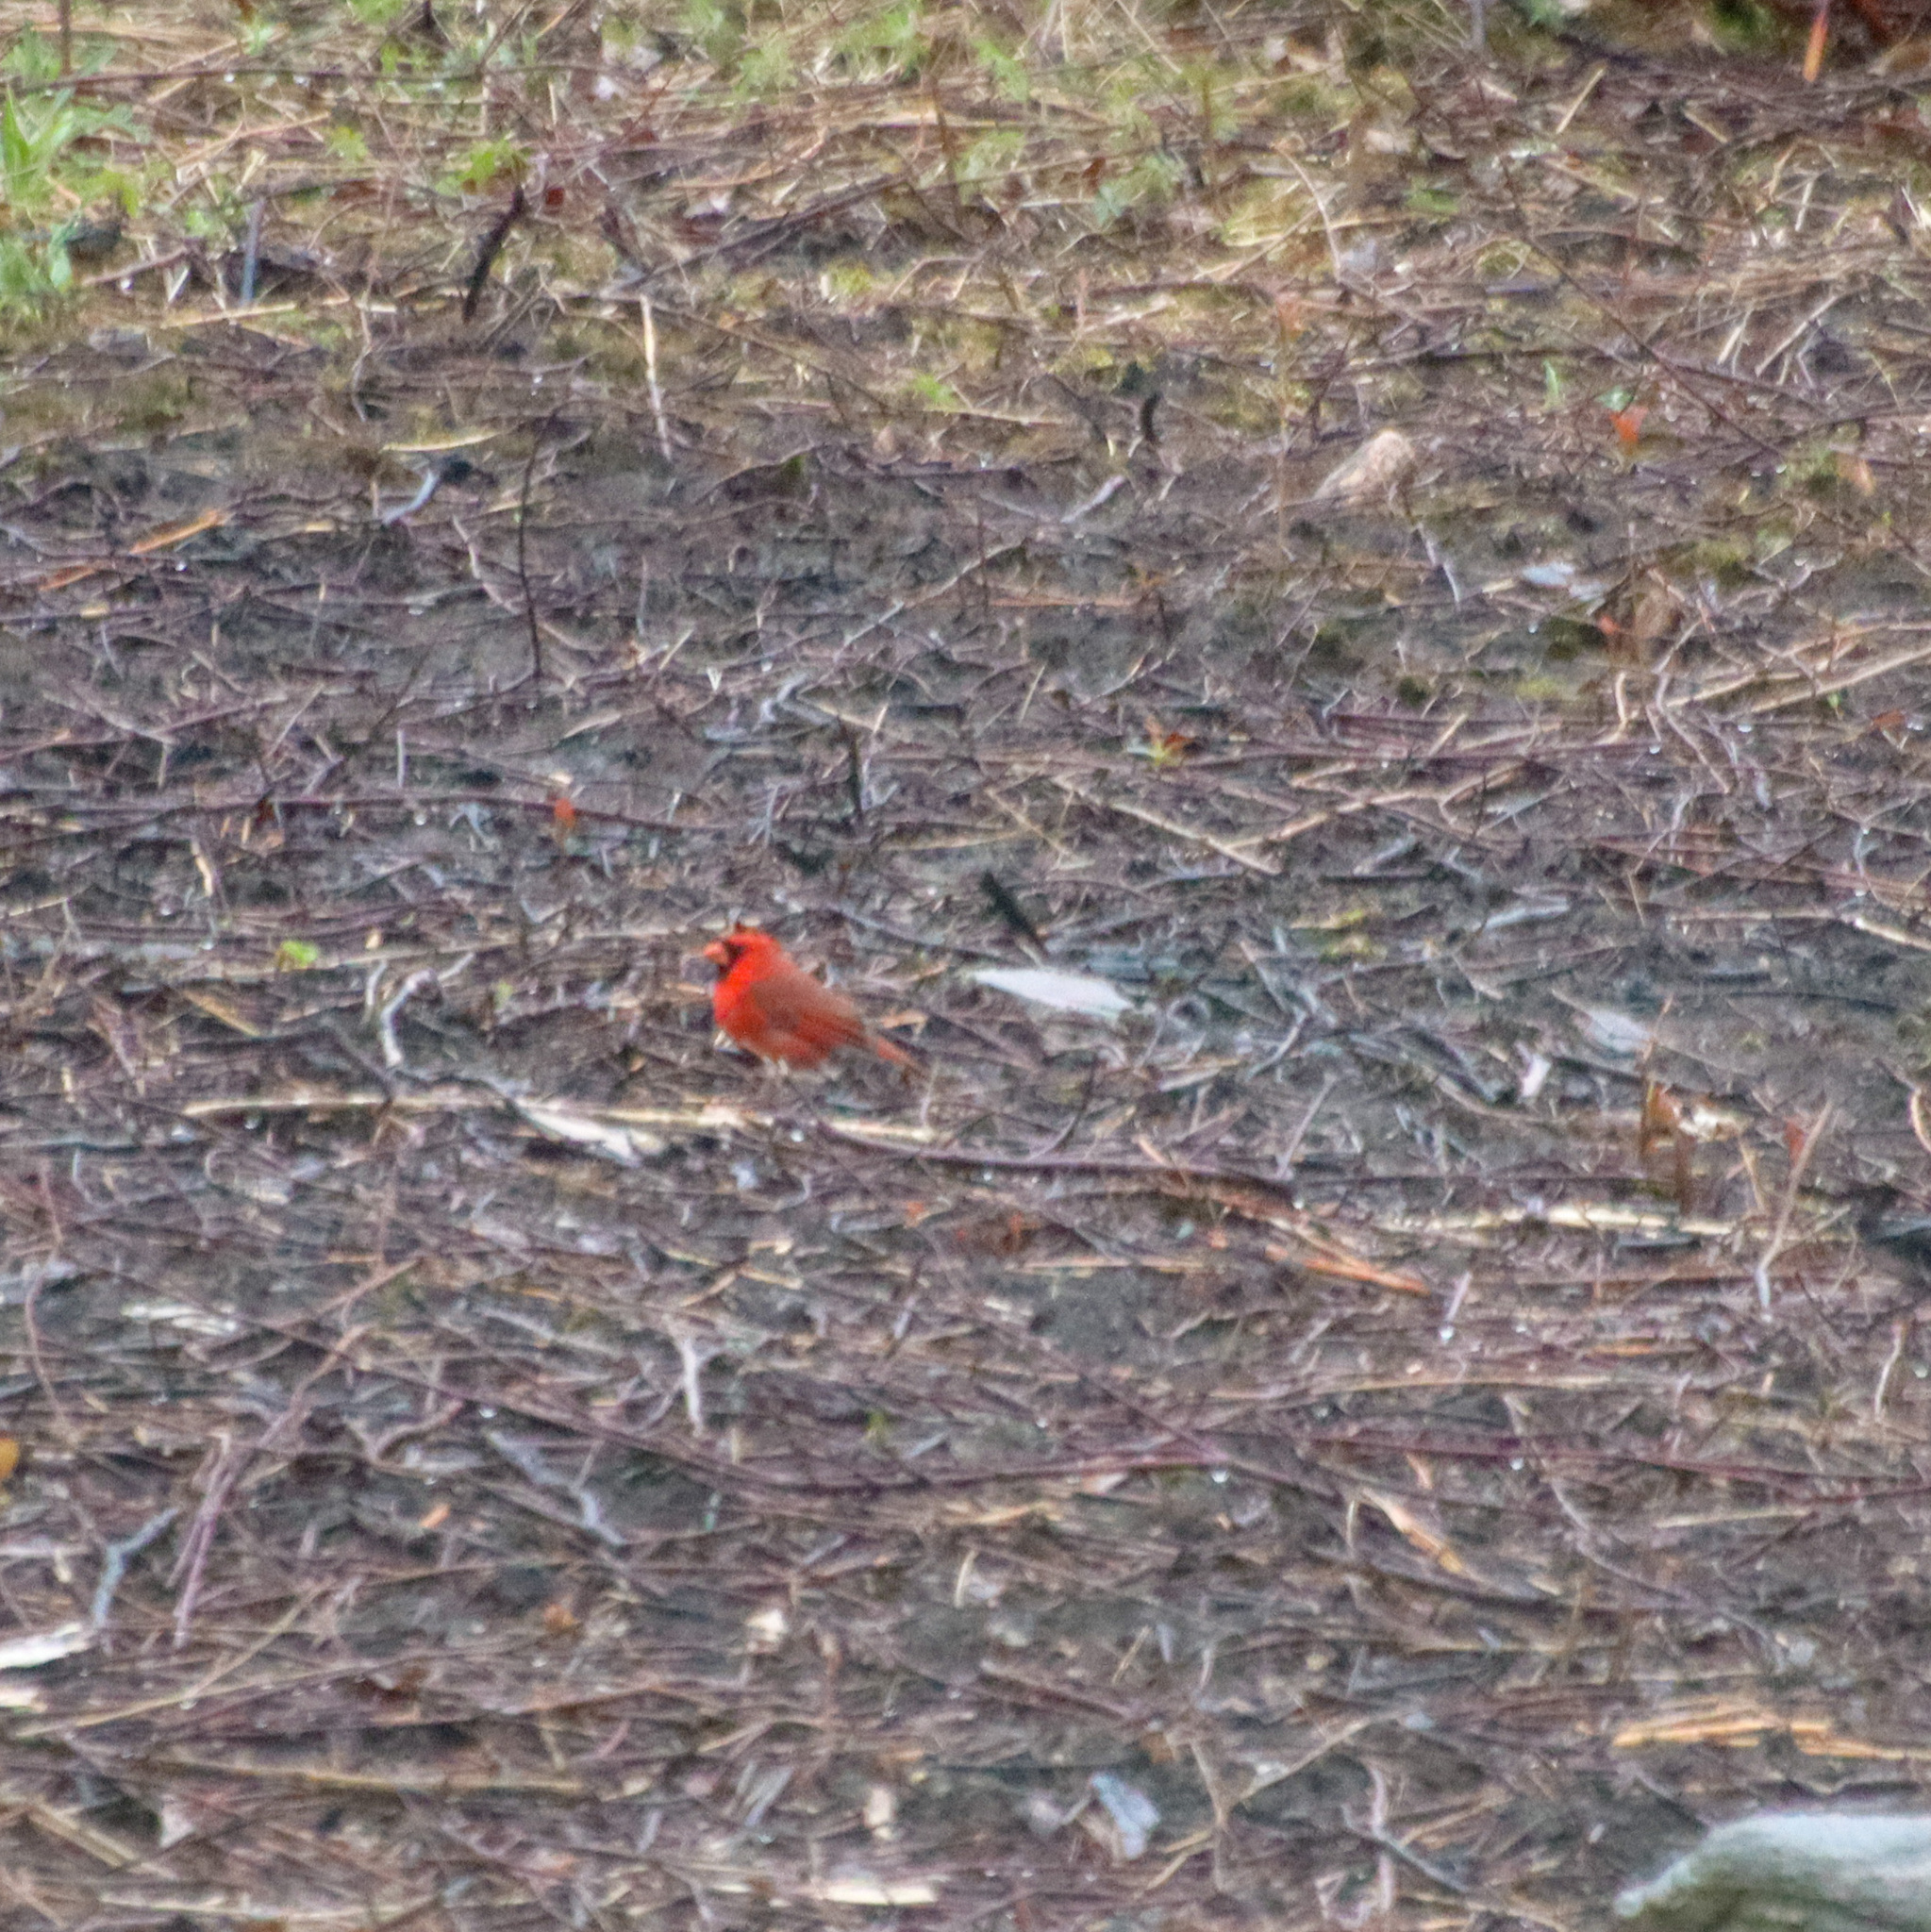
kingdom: Animalia
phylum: Chordata
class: Aves
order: Passeriformes
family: Cardinalidae
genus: Cardinalis
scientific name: Cardinalis cardinalis
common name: Northern cardinal
